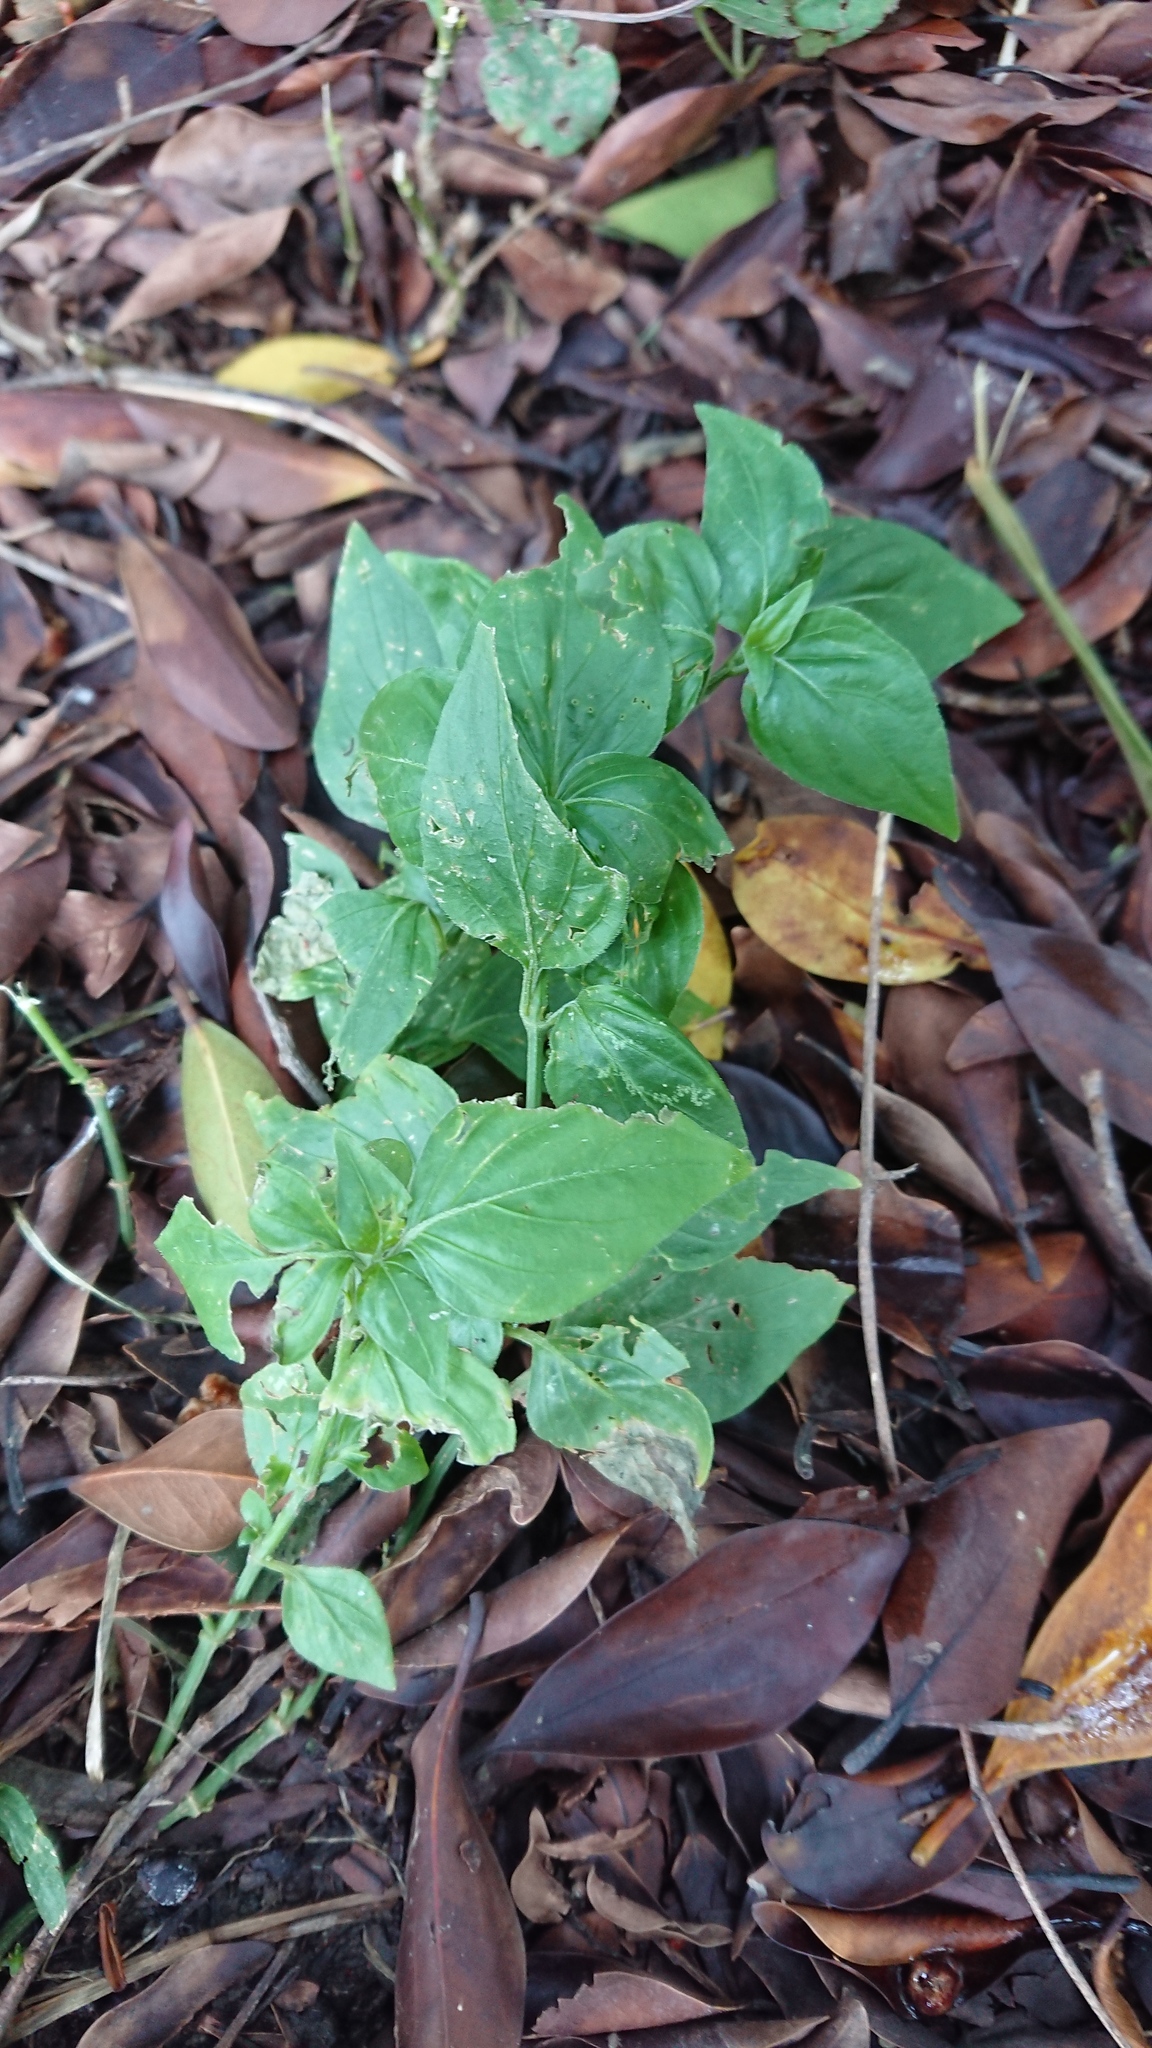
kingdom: Plantae
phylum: Tracheophyta
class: Magnoliopsida
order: Lamiales
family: Acanthaceae
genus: Dicliptera
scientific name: Dicliptera chinensis
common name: Chinese foldwing
